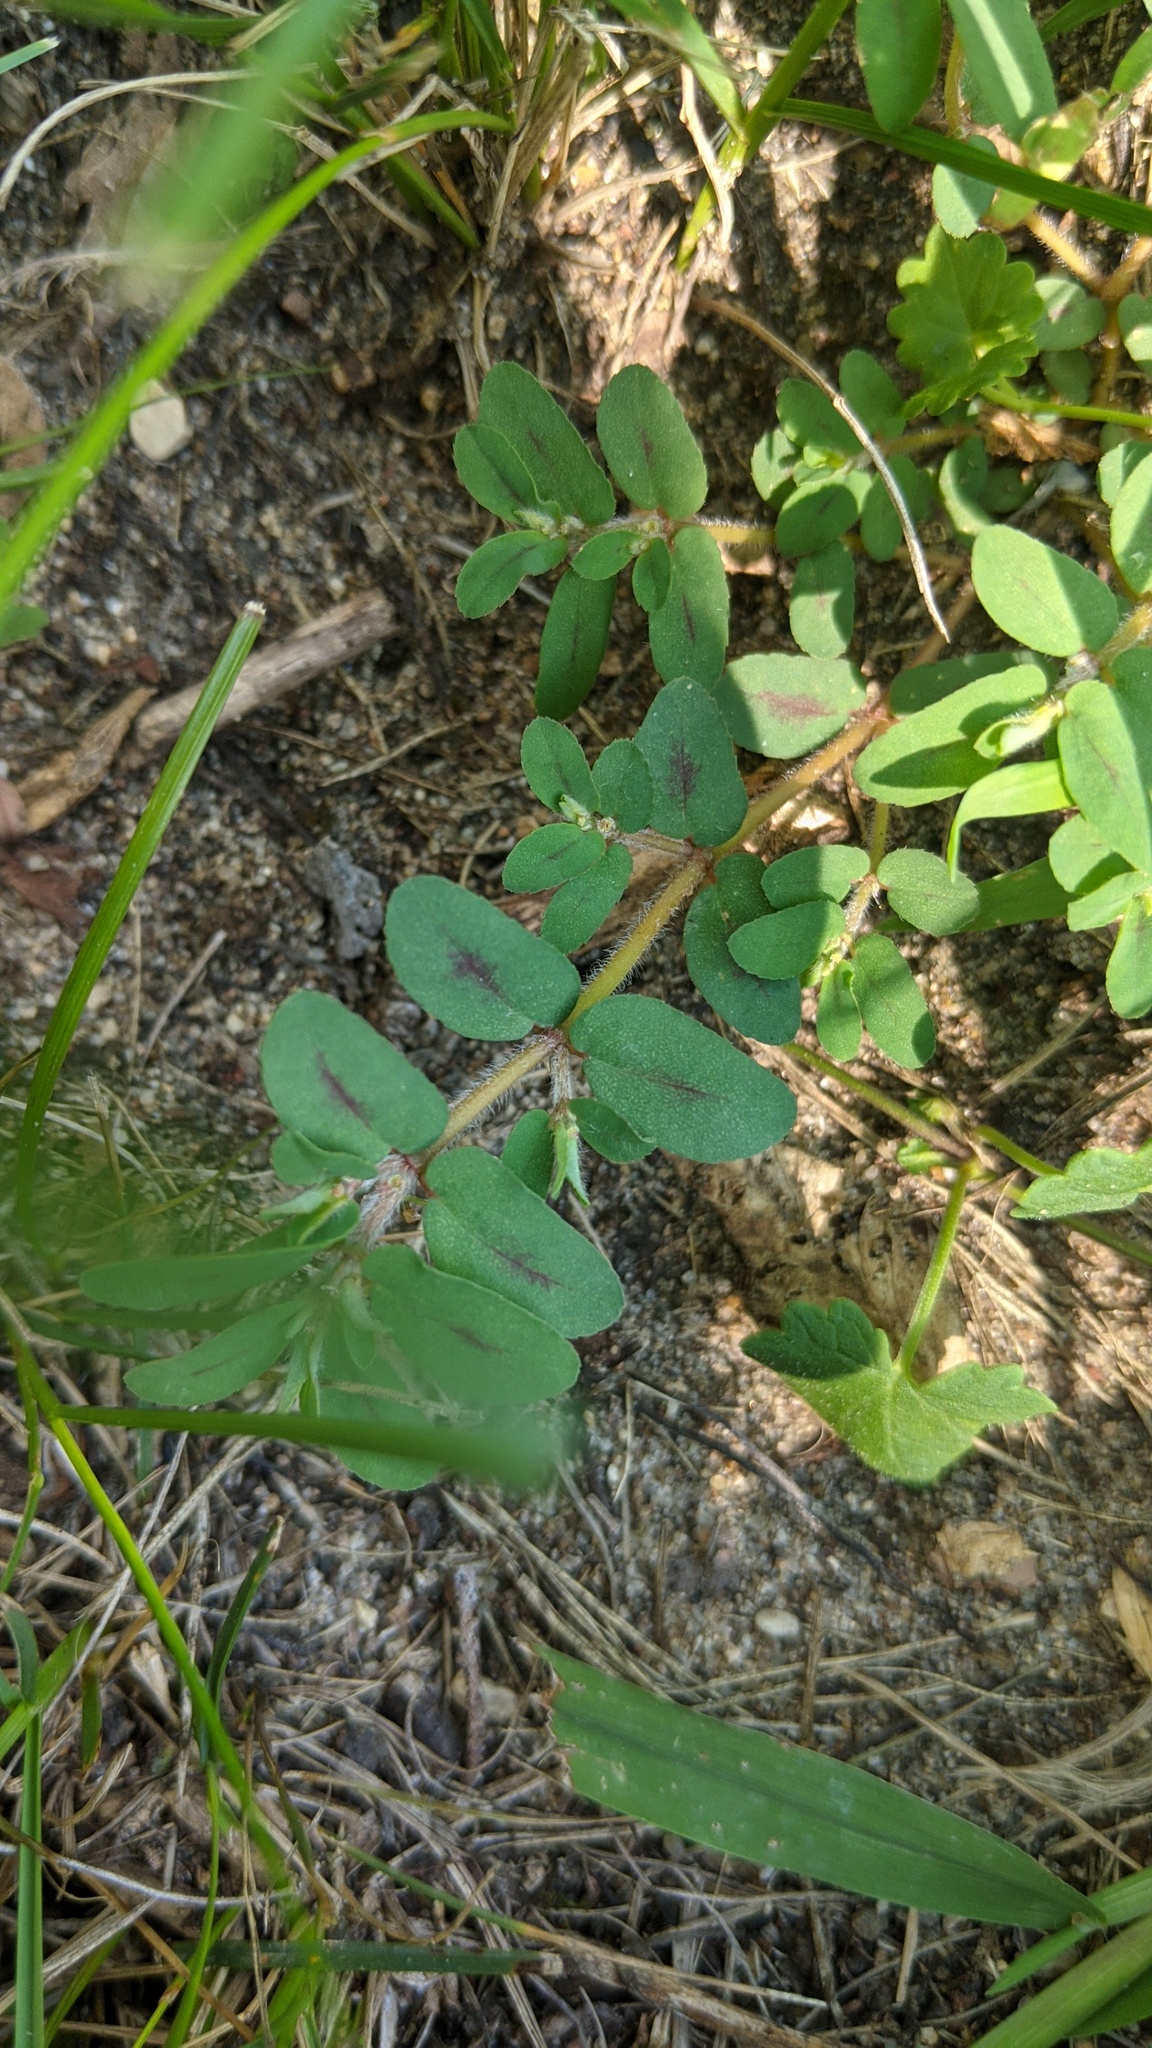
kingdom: Plantae
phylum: Tracheophyta
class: Magnoliopsida
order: Malpighiales
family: Euphorbiaceae
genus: Euphorbia
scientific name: Euphorbia maculata
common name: Spotted spurge
